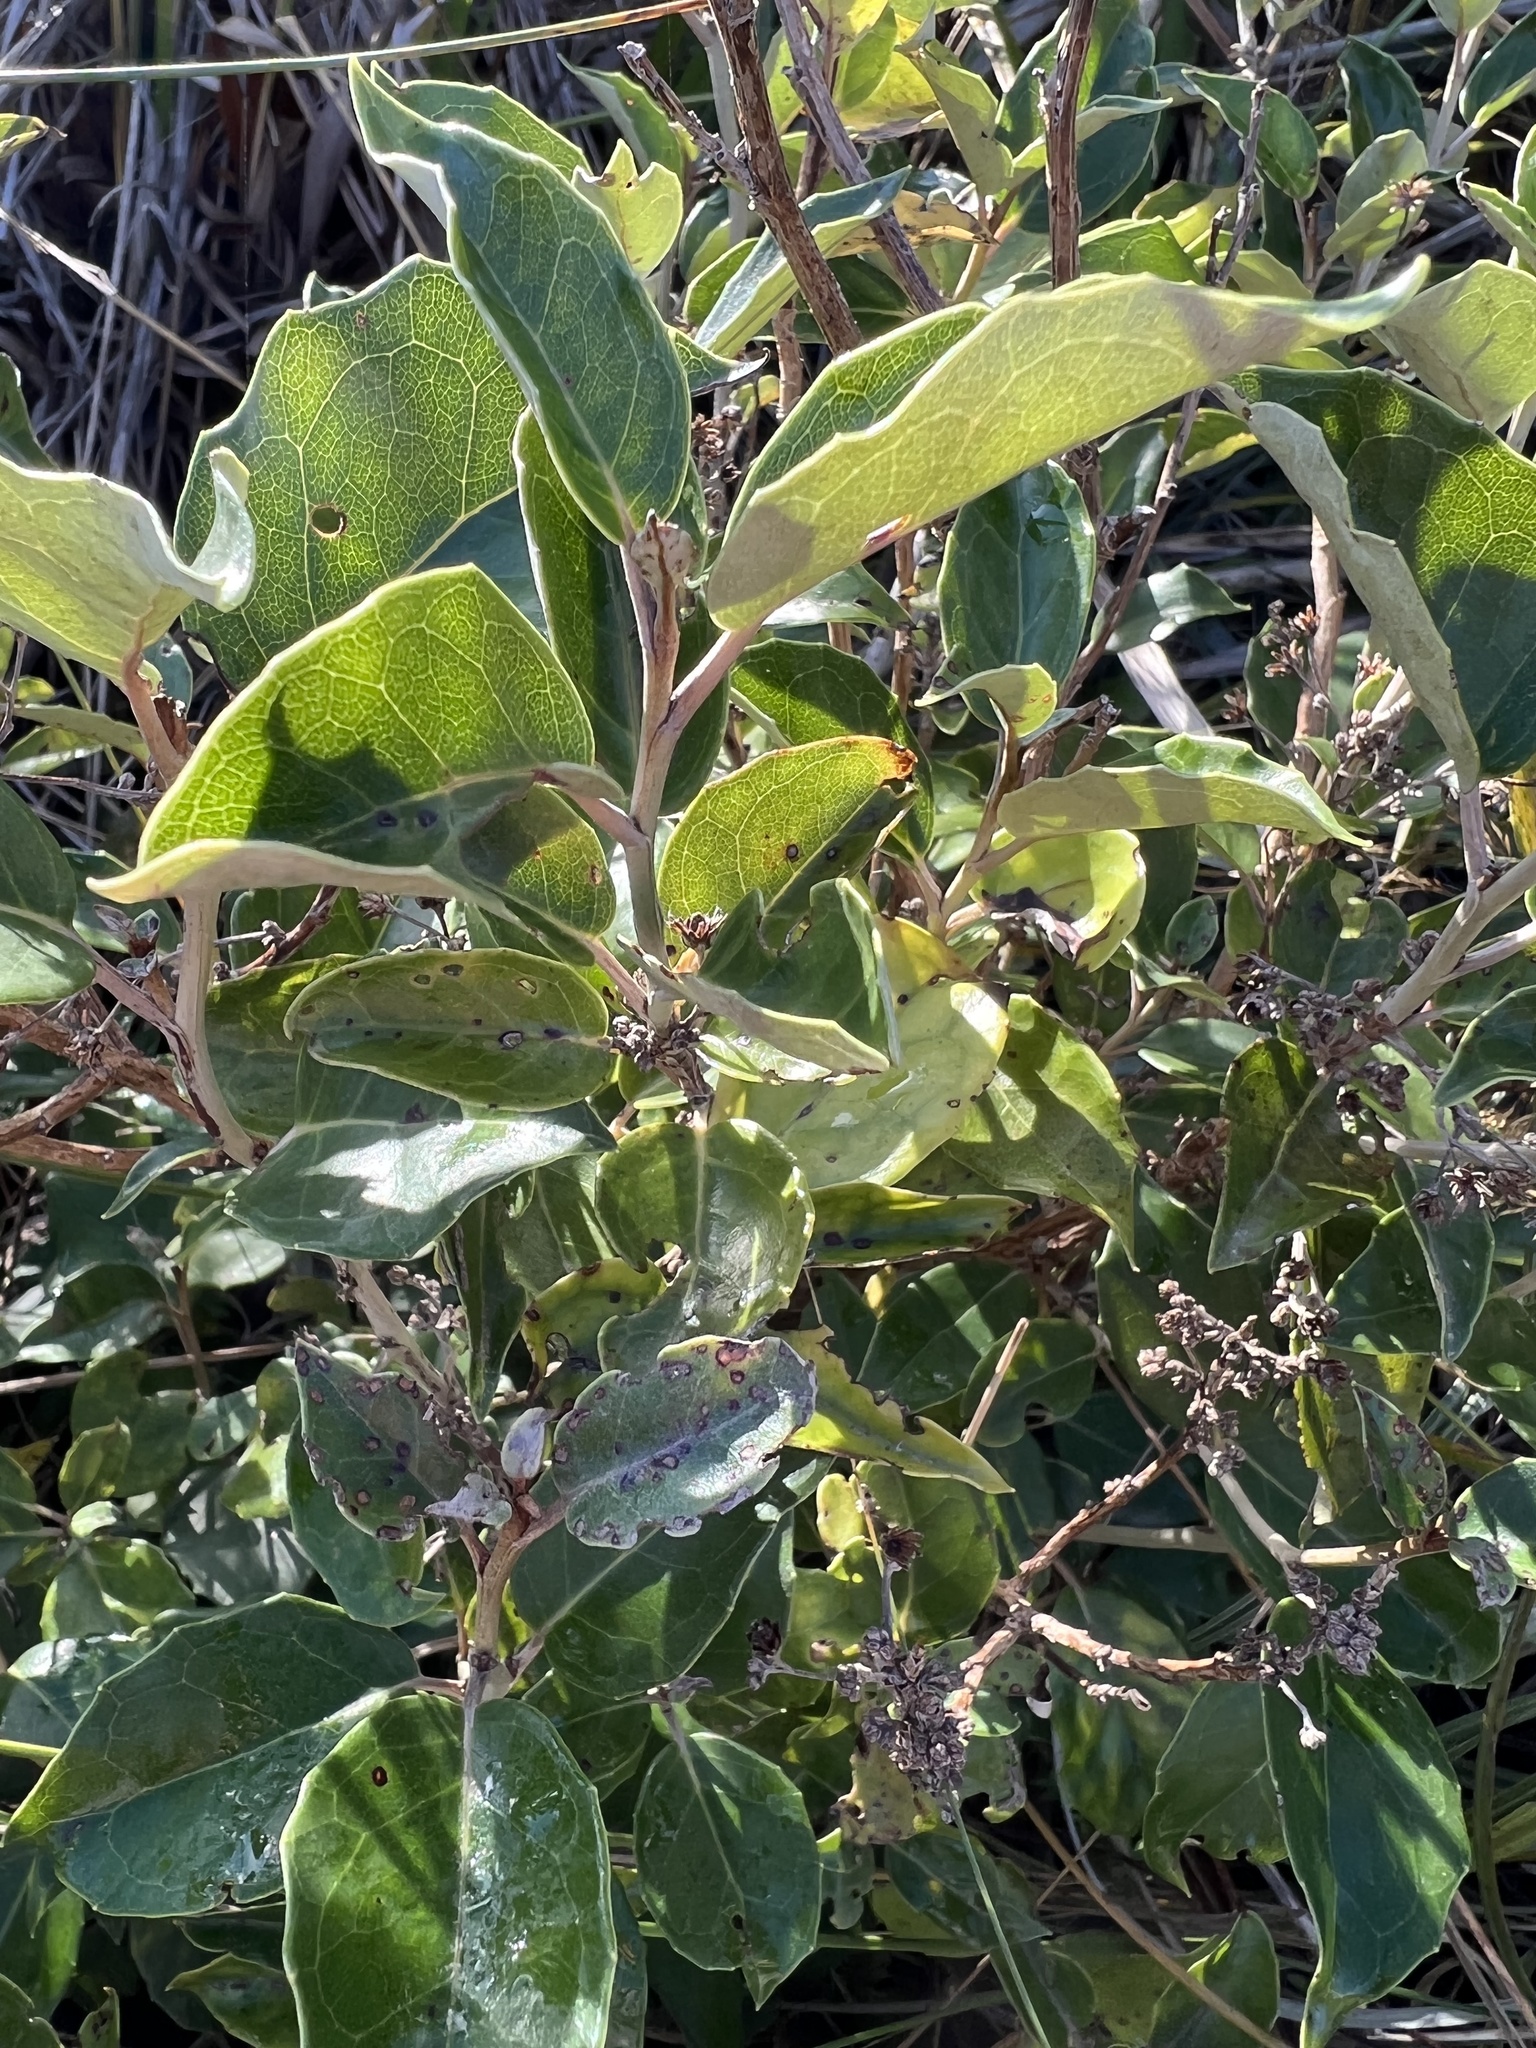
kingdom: Plantae
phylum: Tracheophyta
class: Magnoliopsida
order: Asterales
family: Asteraceae
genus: Olearia
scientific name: Olearia arborescens
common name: Glossy tree daisy
